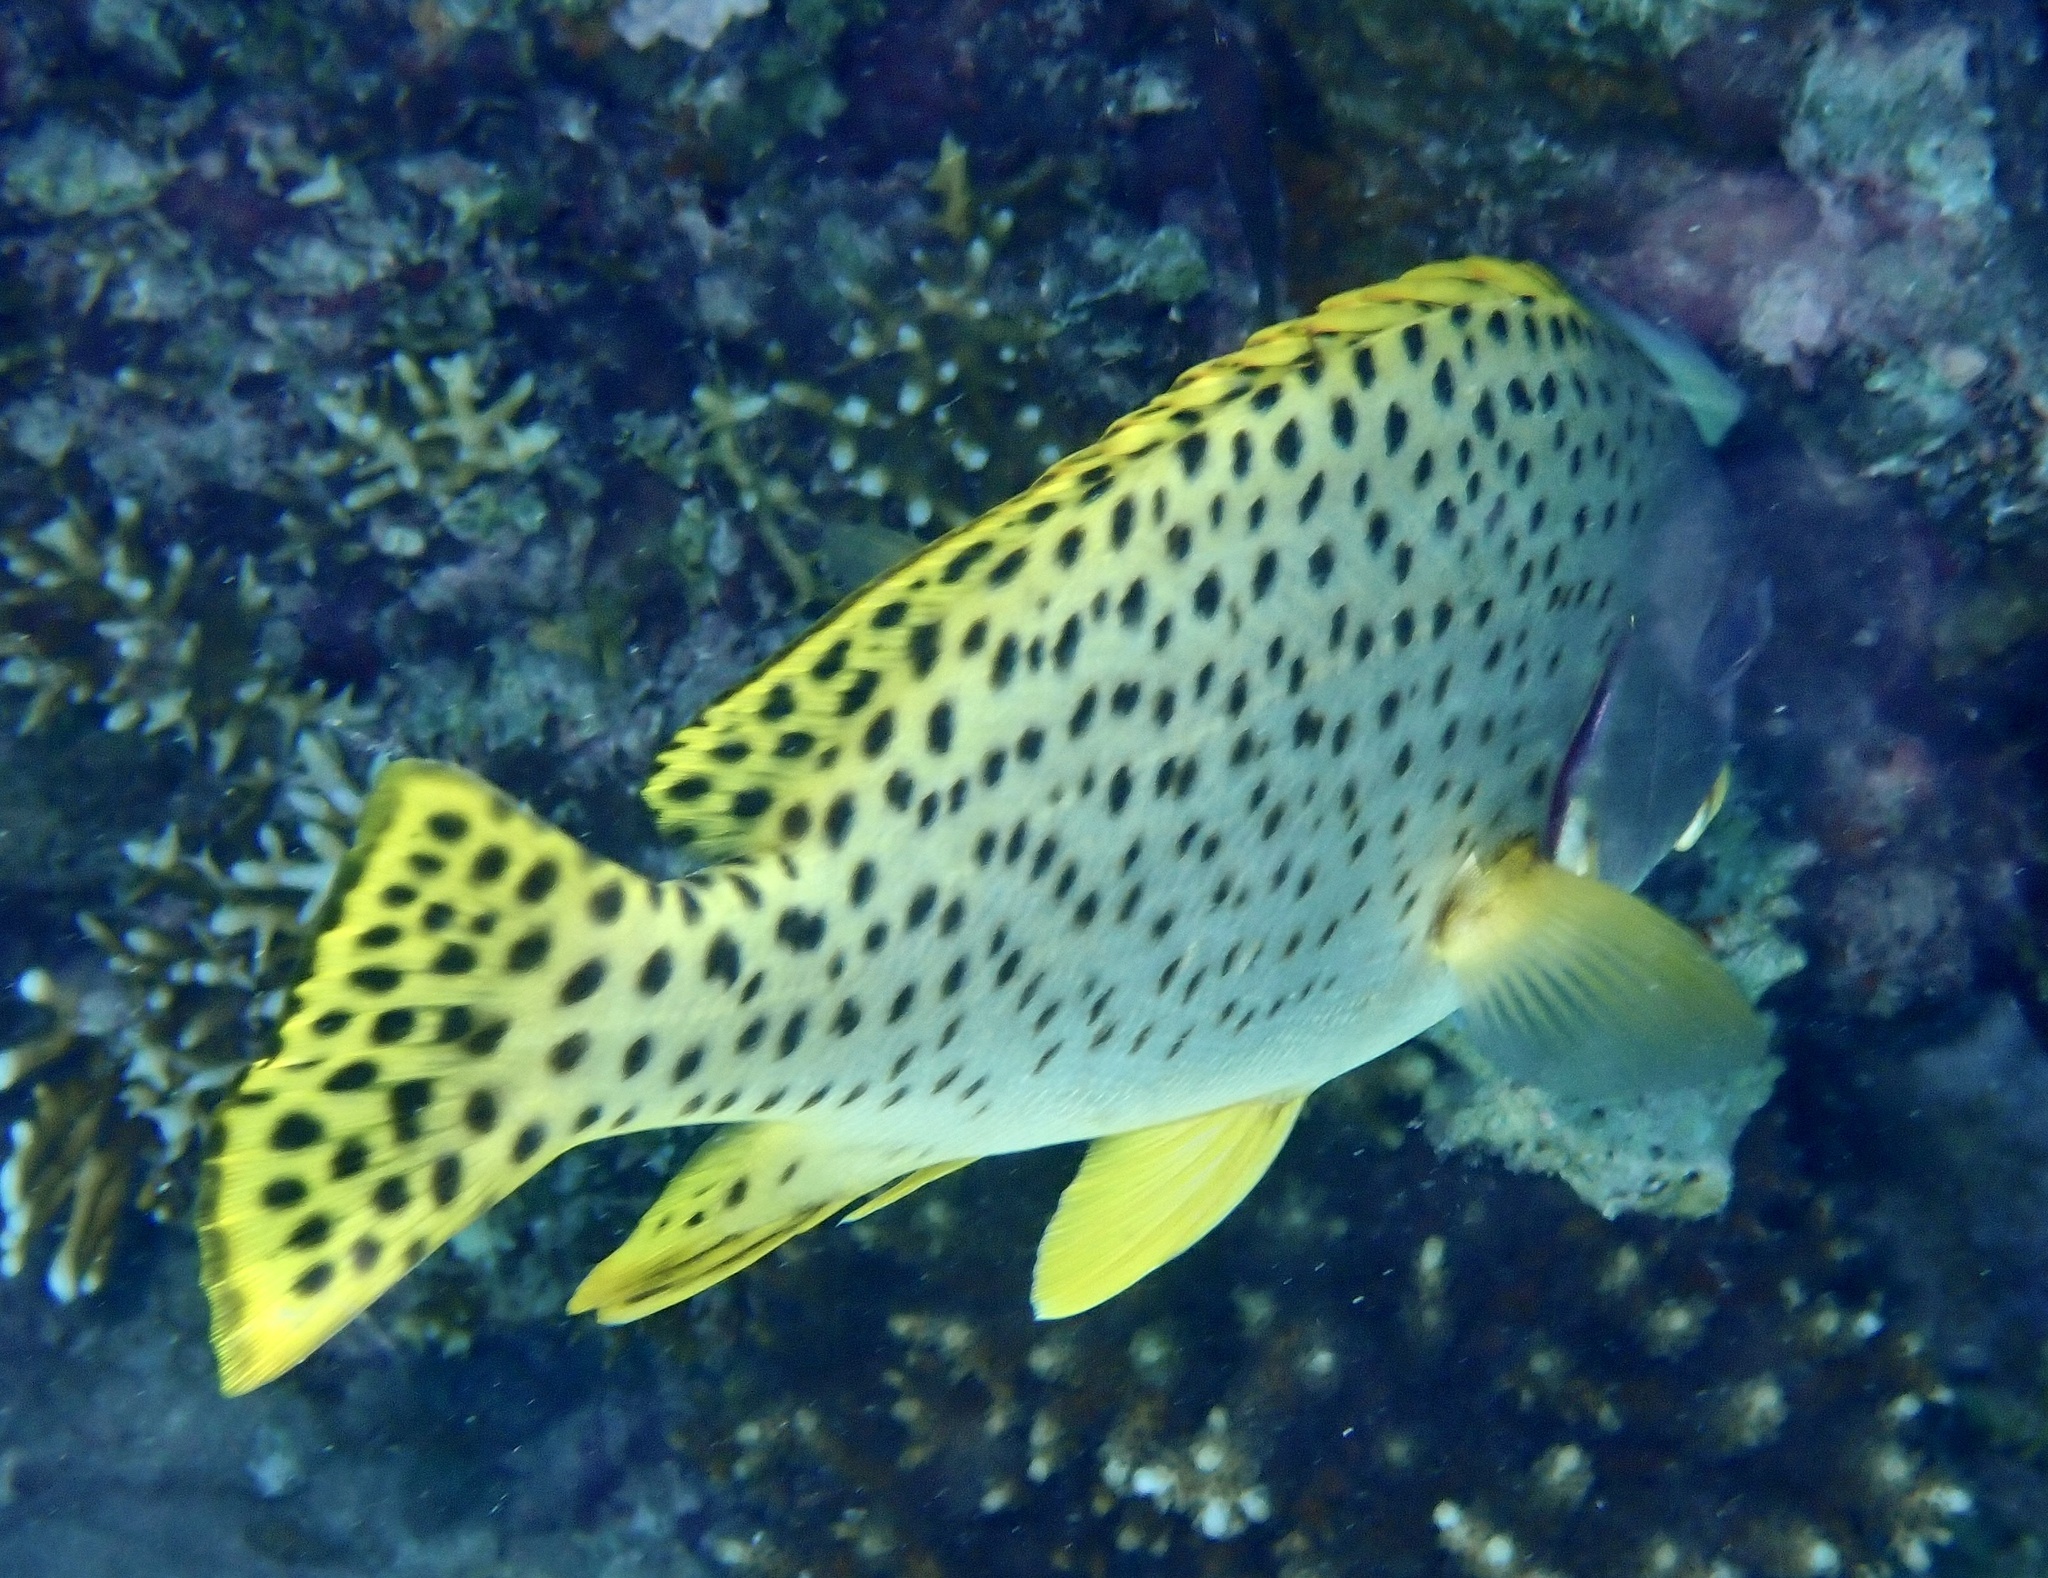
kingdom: Animalia
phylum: Chordata
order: Perciformes
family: Haemulidae
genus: Plectorhinchus
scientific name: Plectorhinchus gaterinus
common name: Blackspotted rubberlip
